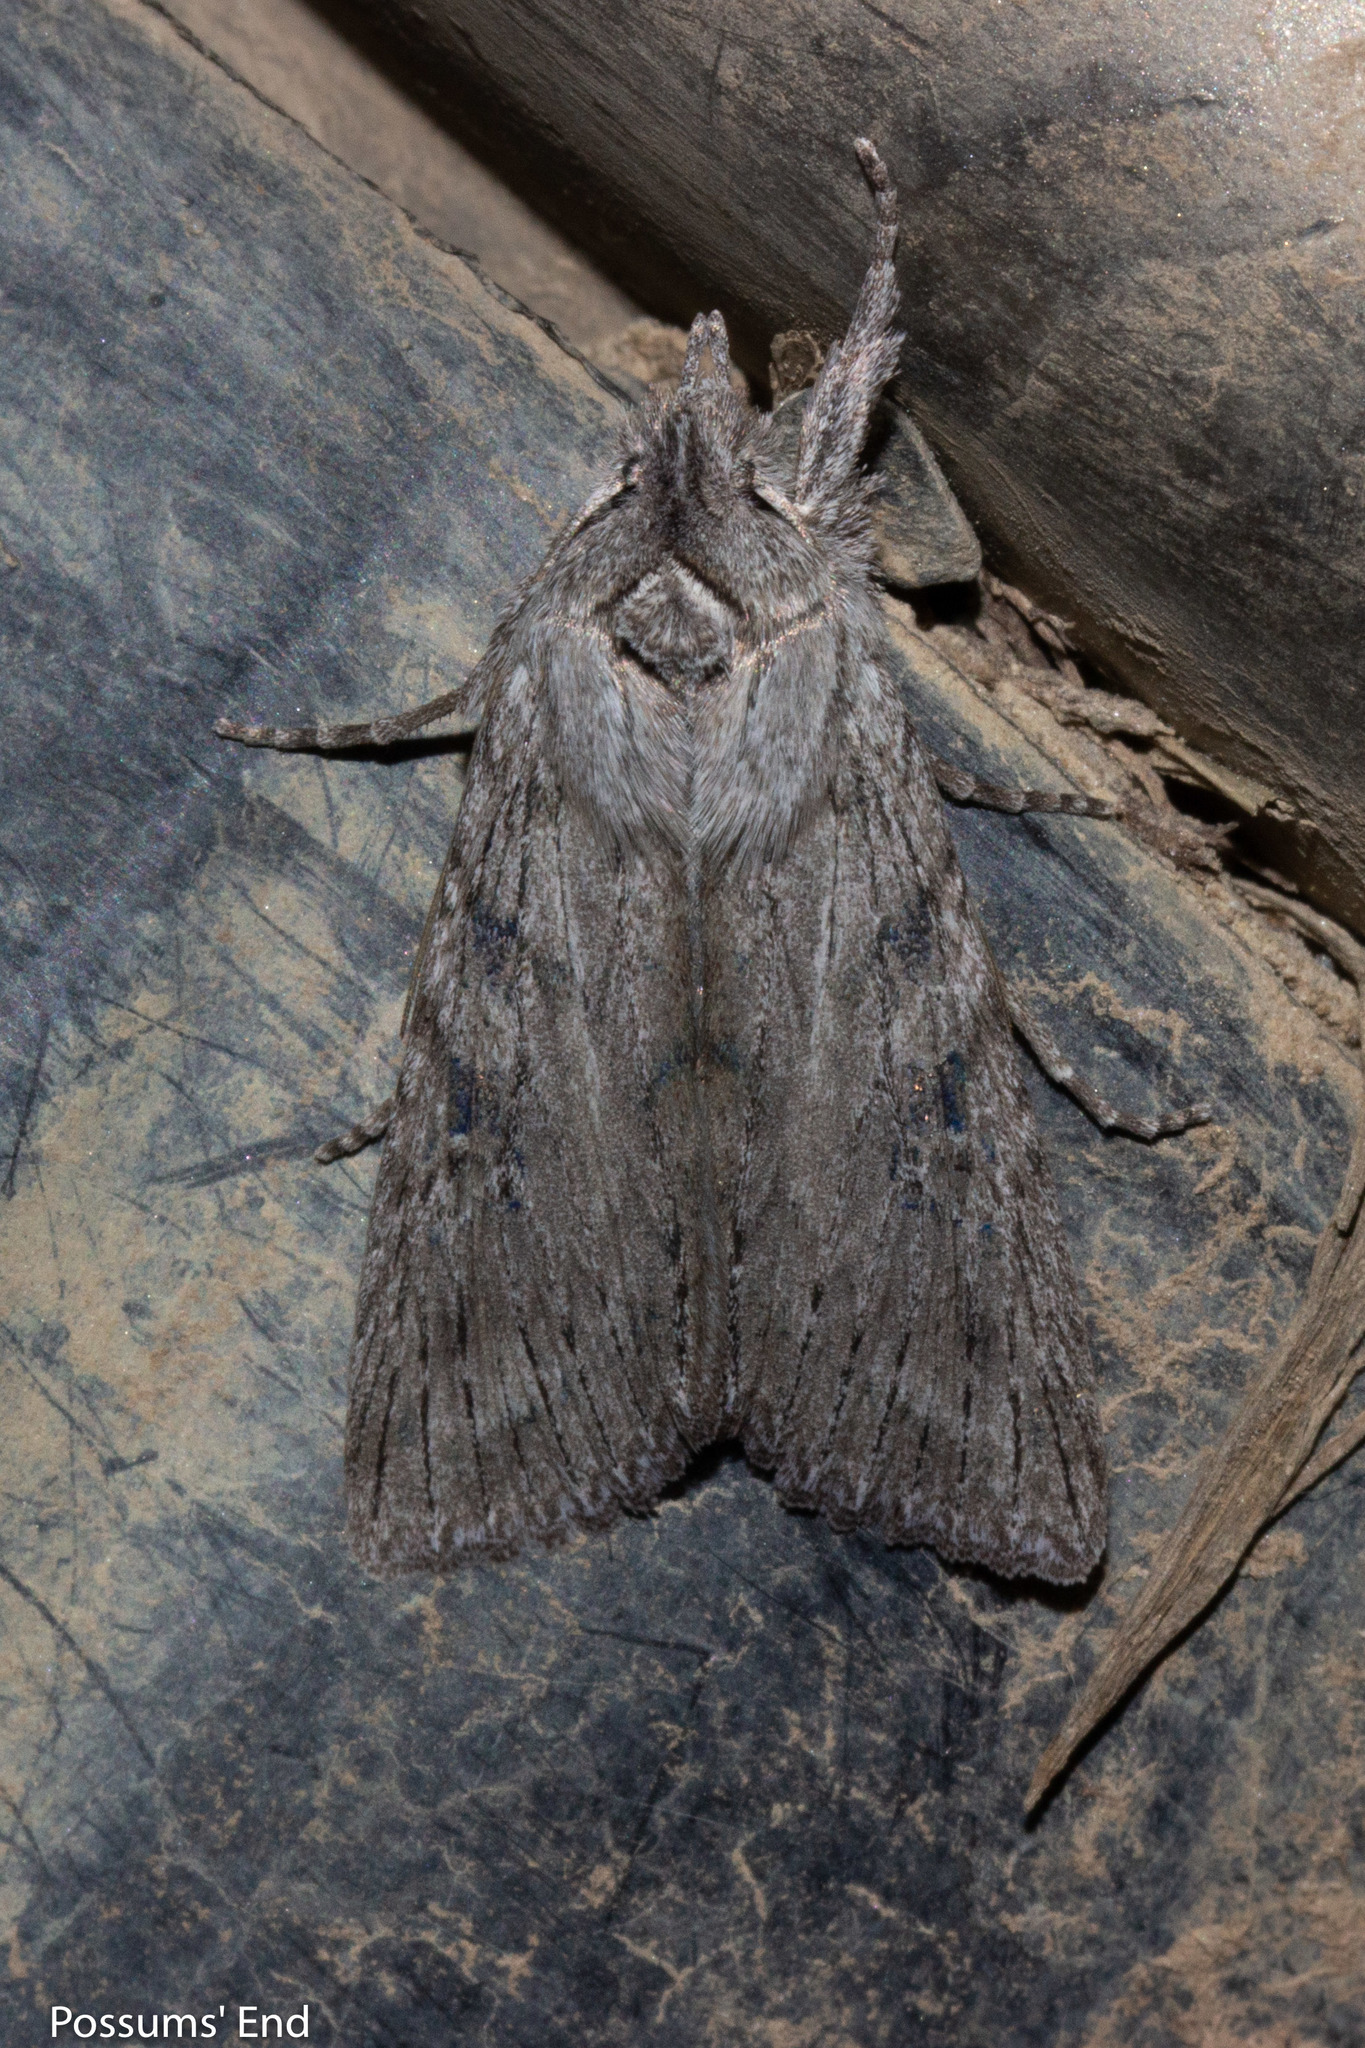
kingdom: Animalia
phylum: Arthropoda
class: Insecta
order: Lepidoptera
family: Noctuidae
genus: Physetica
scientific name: Physetica phricias
